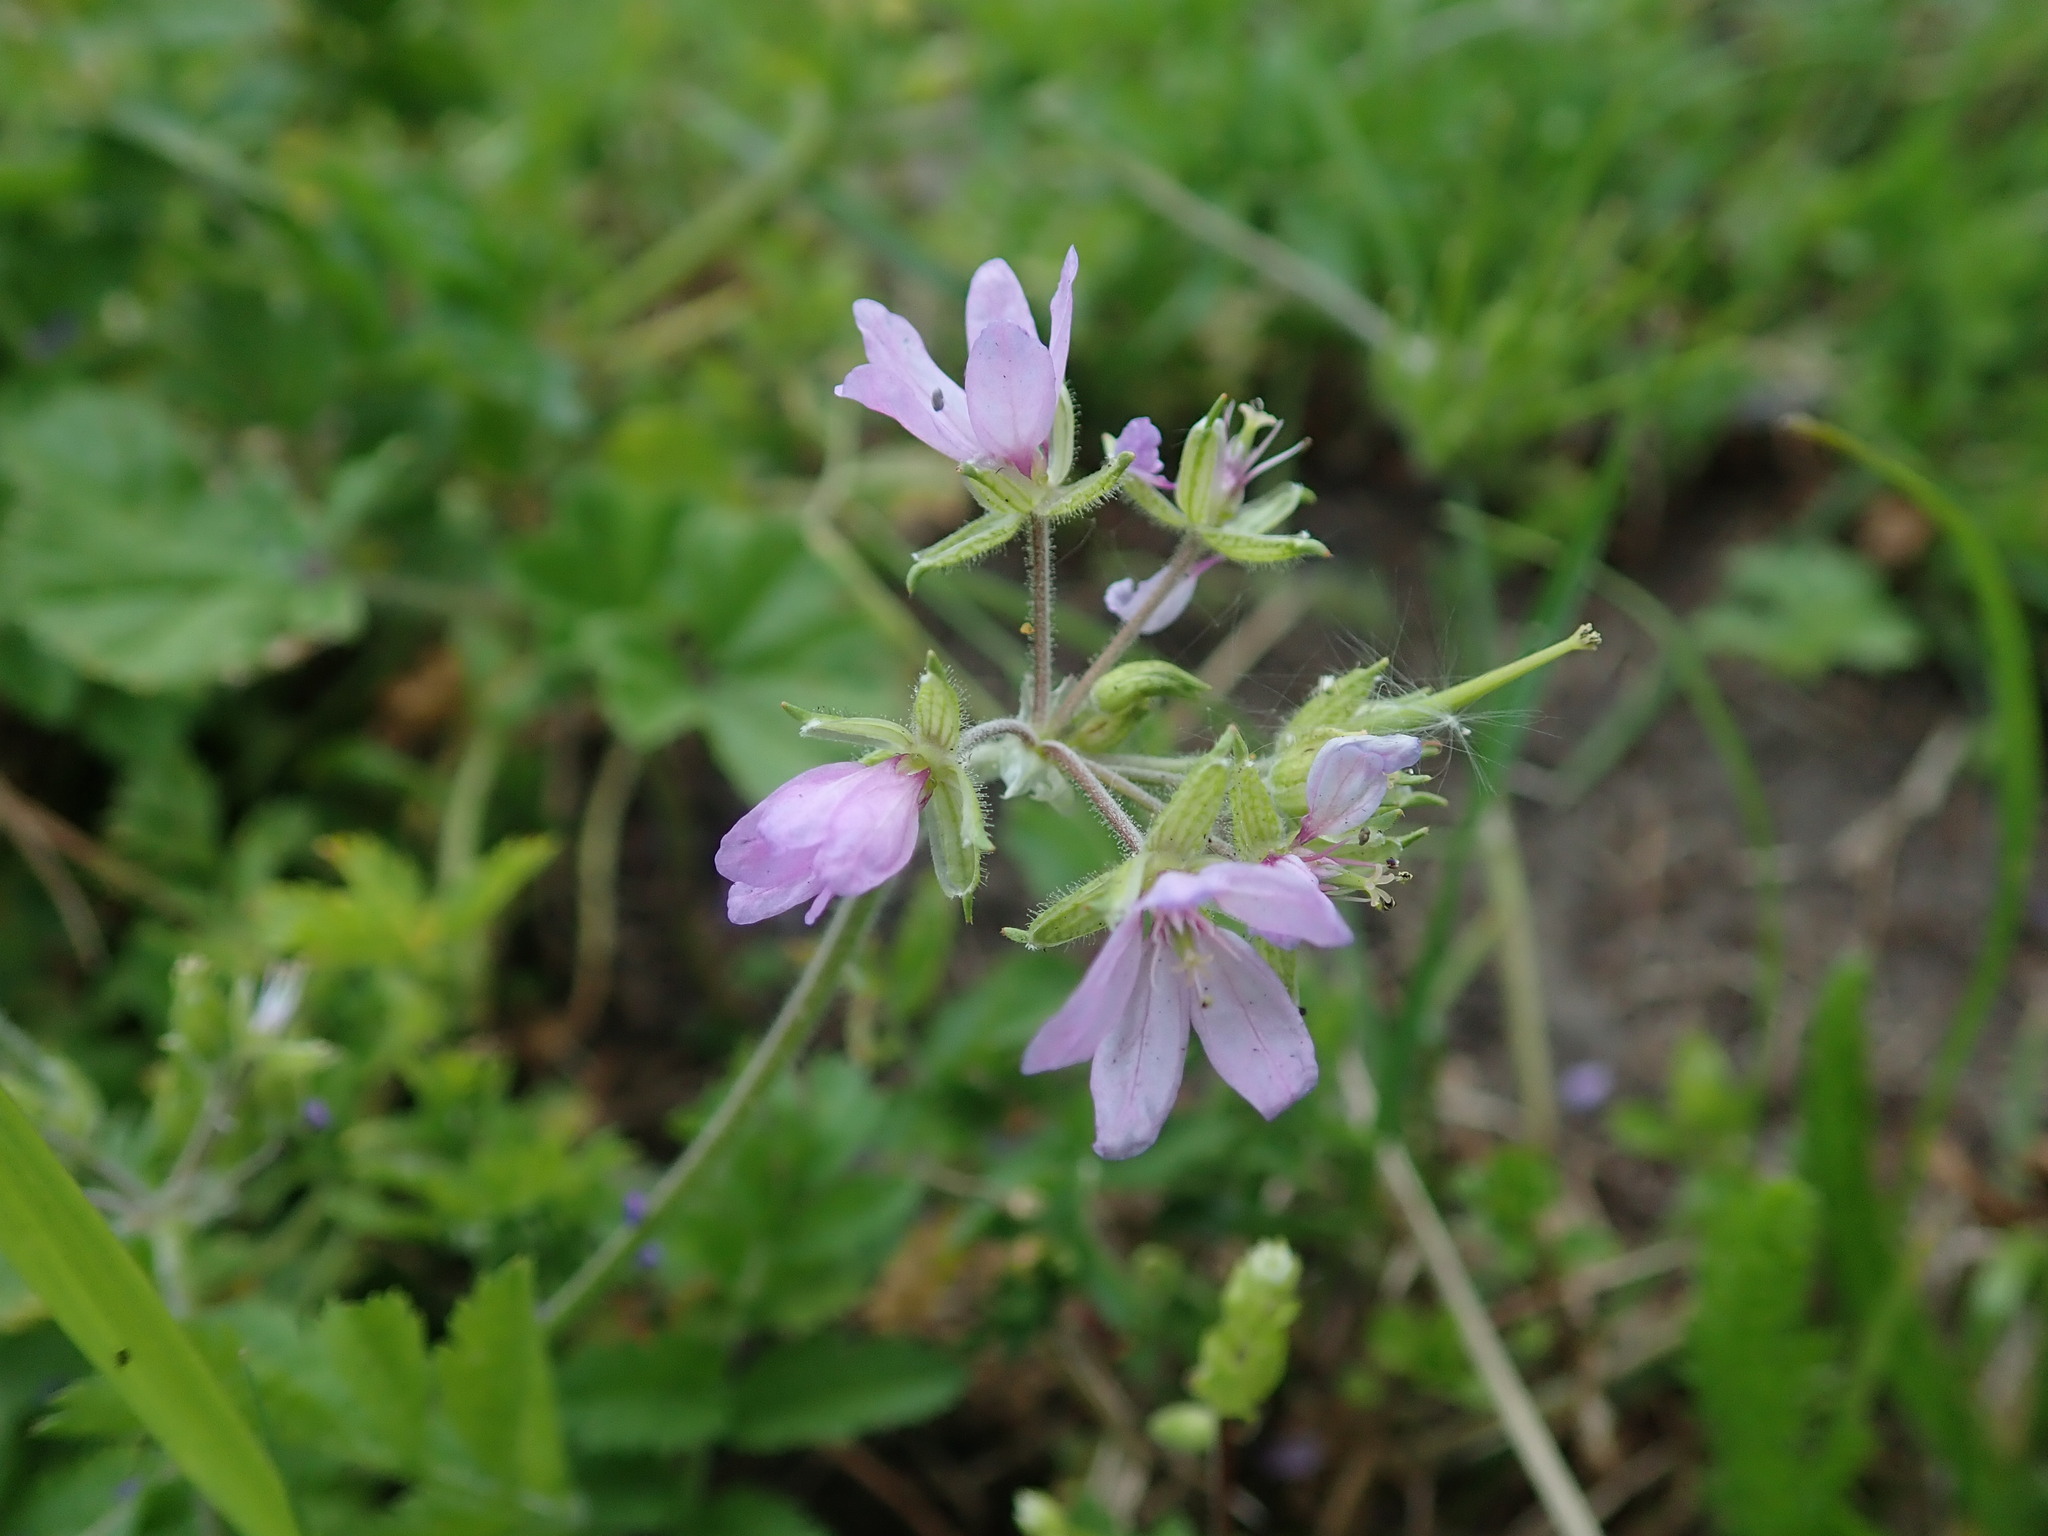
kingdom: Plantae
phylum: Tracheophyta
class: Magnoliopsida
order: Geraniales
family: Geraniaceae
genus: Erodium
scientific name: Erodium moschatum
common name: Musk stork's-bill
